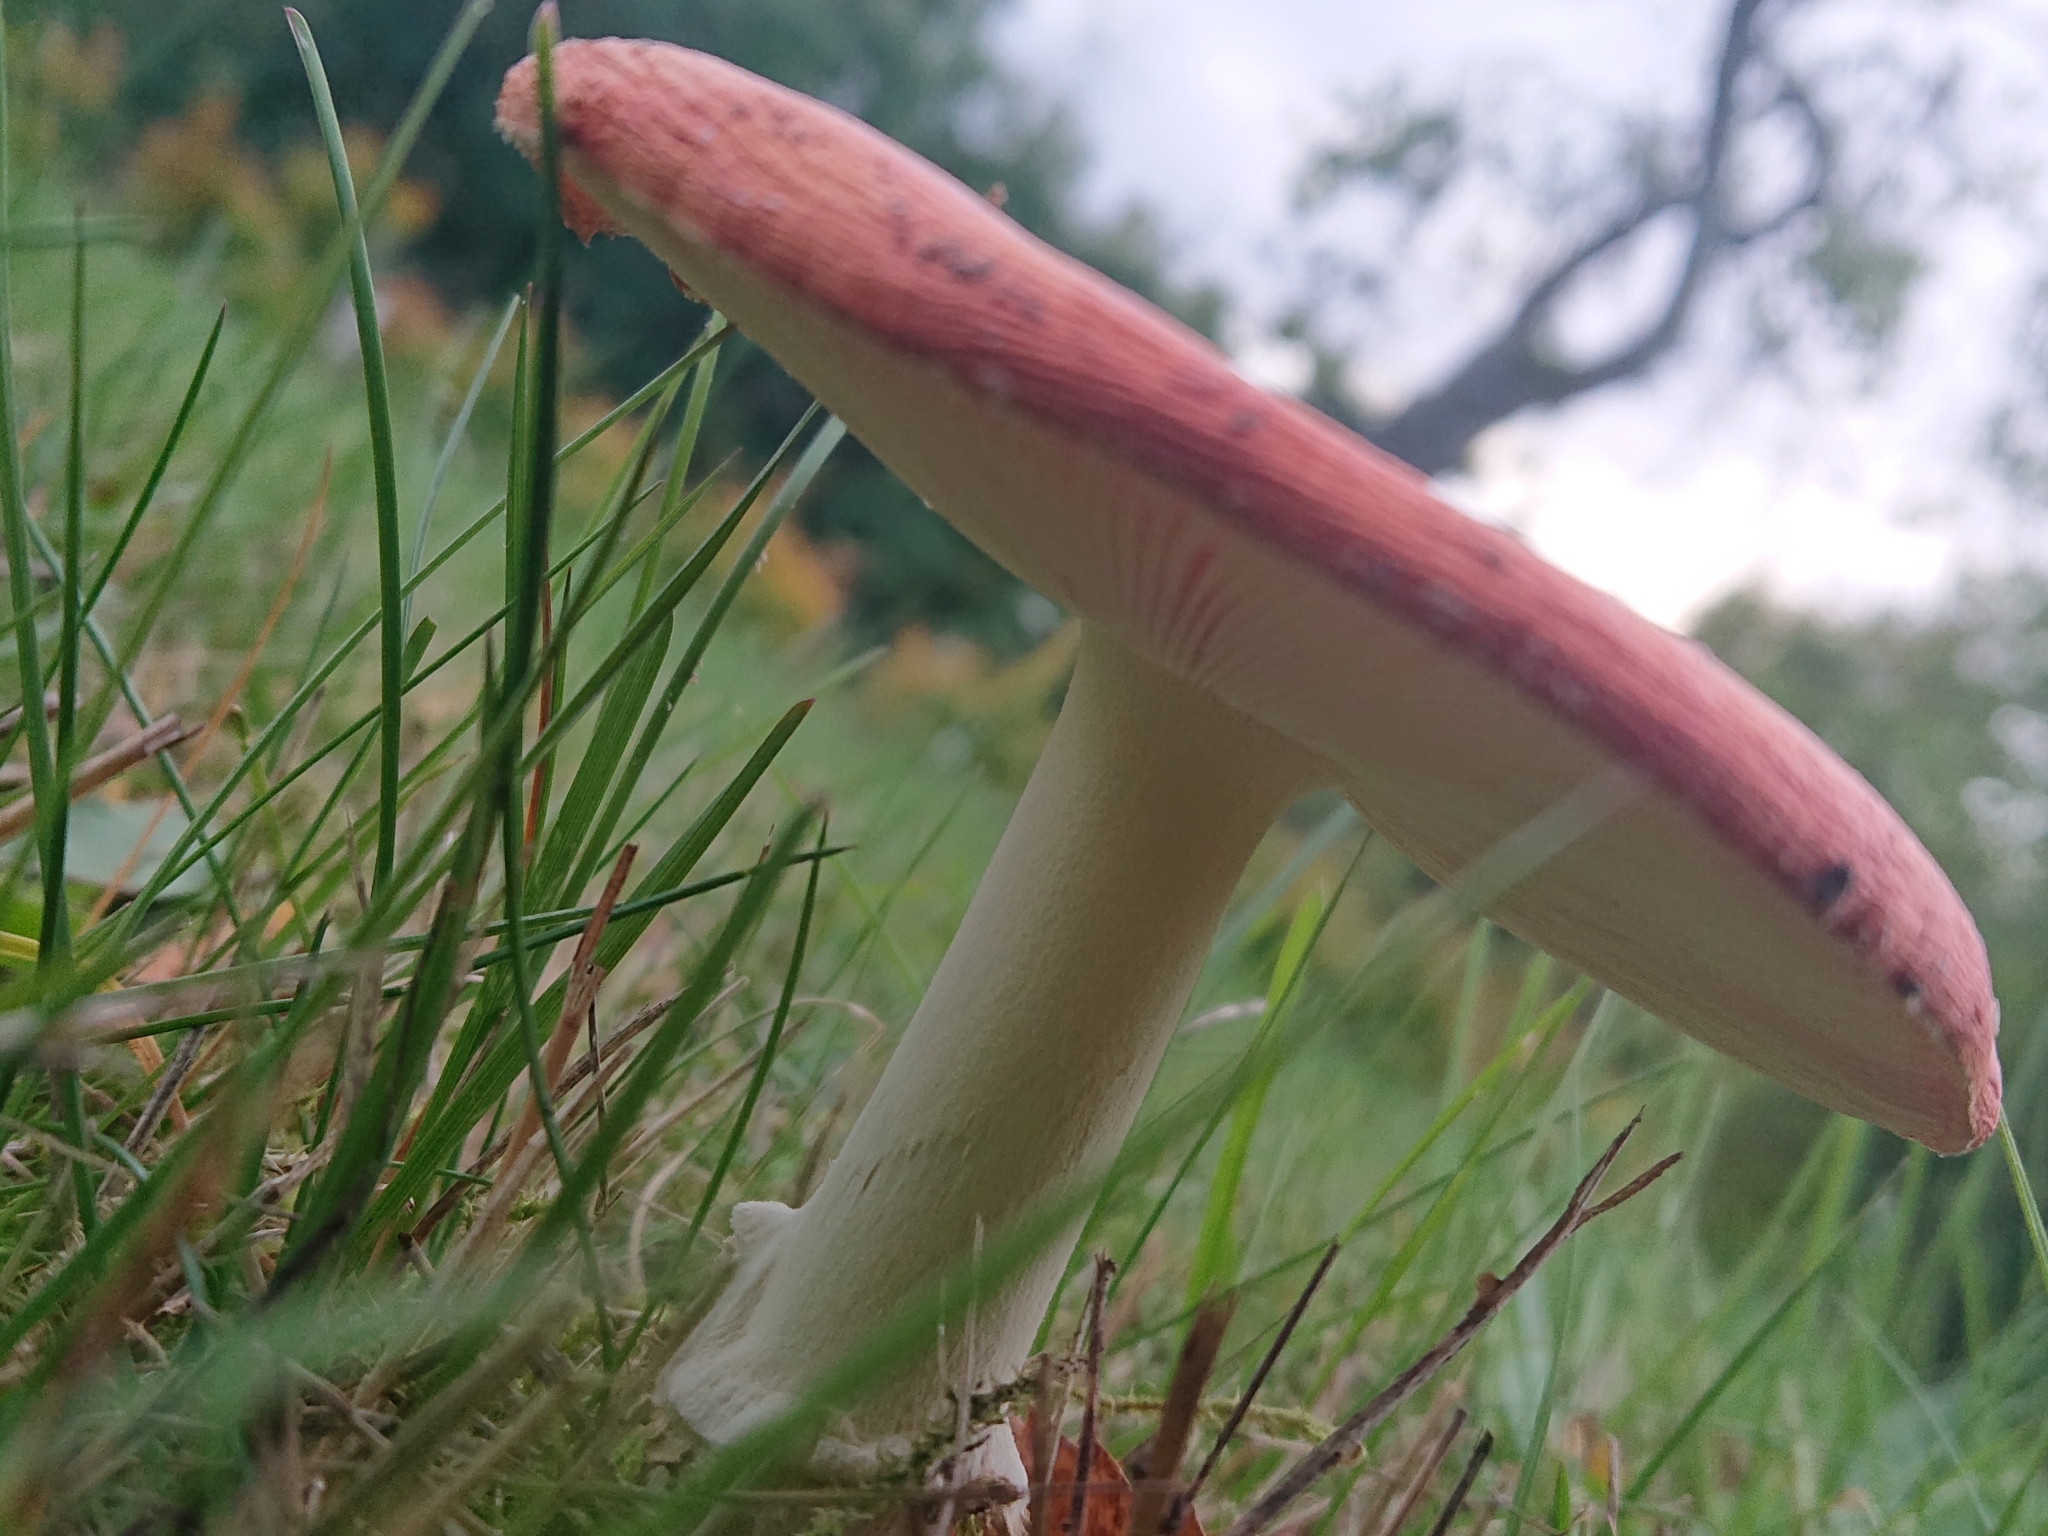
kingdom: Fungi
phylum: Basidiomycota
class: Agaricomycetes
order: Agaricales
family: Amanitaceae
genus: Amanita
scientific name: Amanita muscaria
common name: Fly agaric
